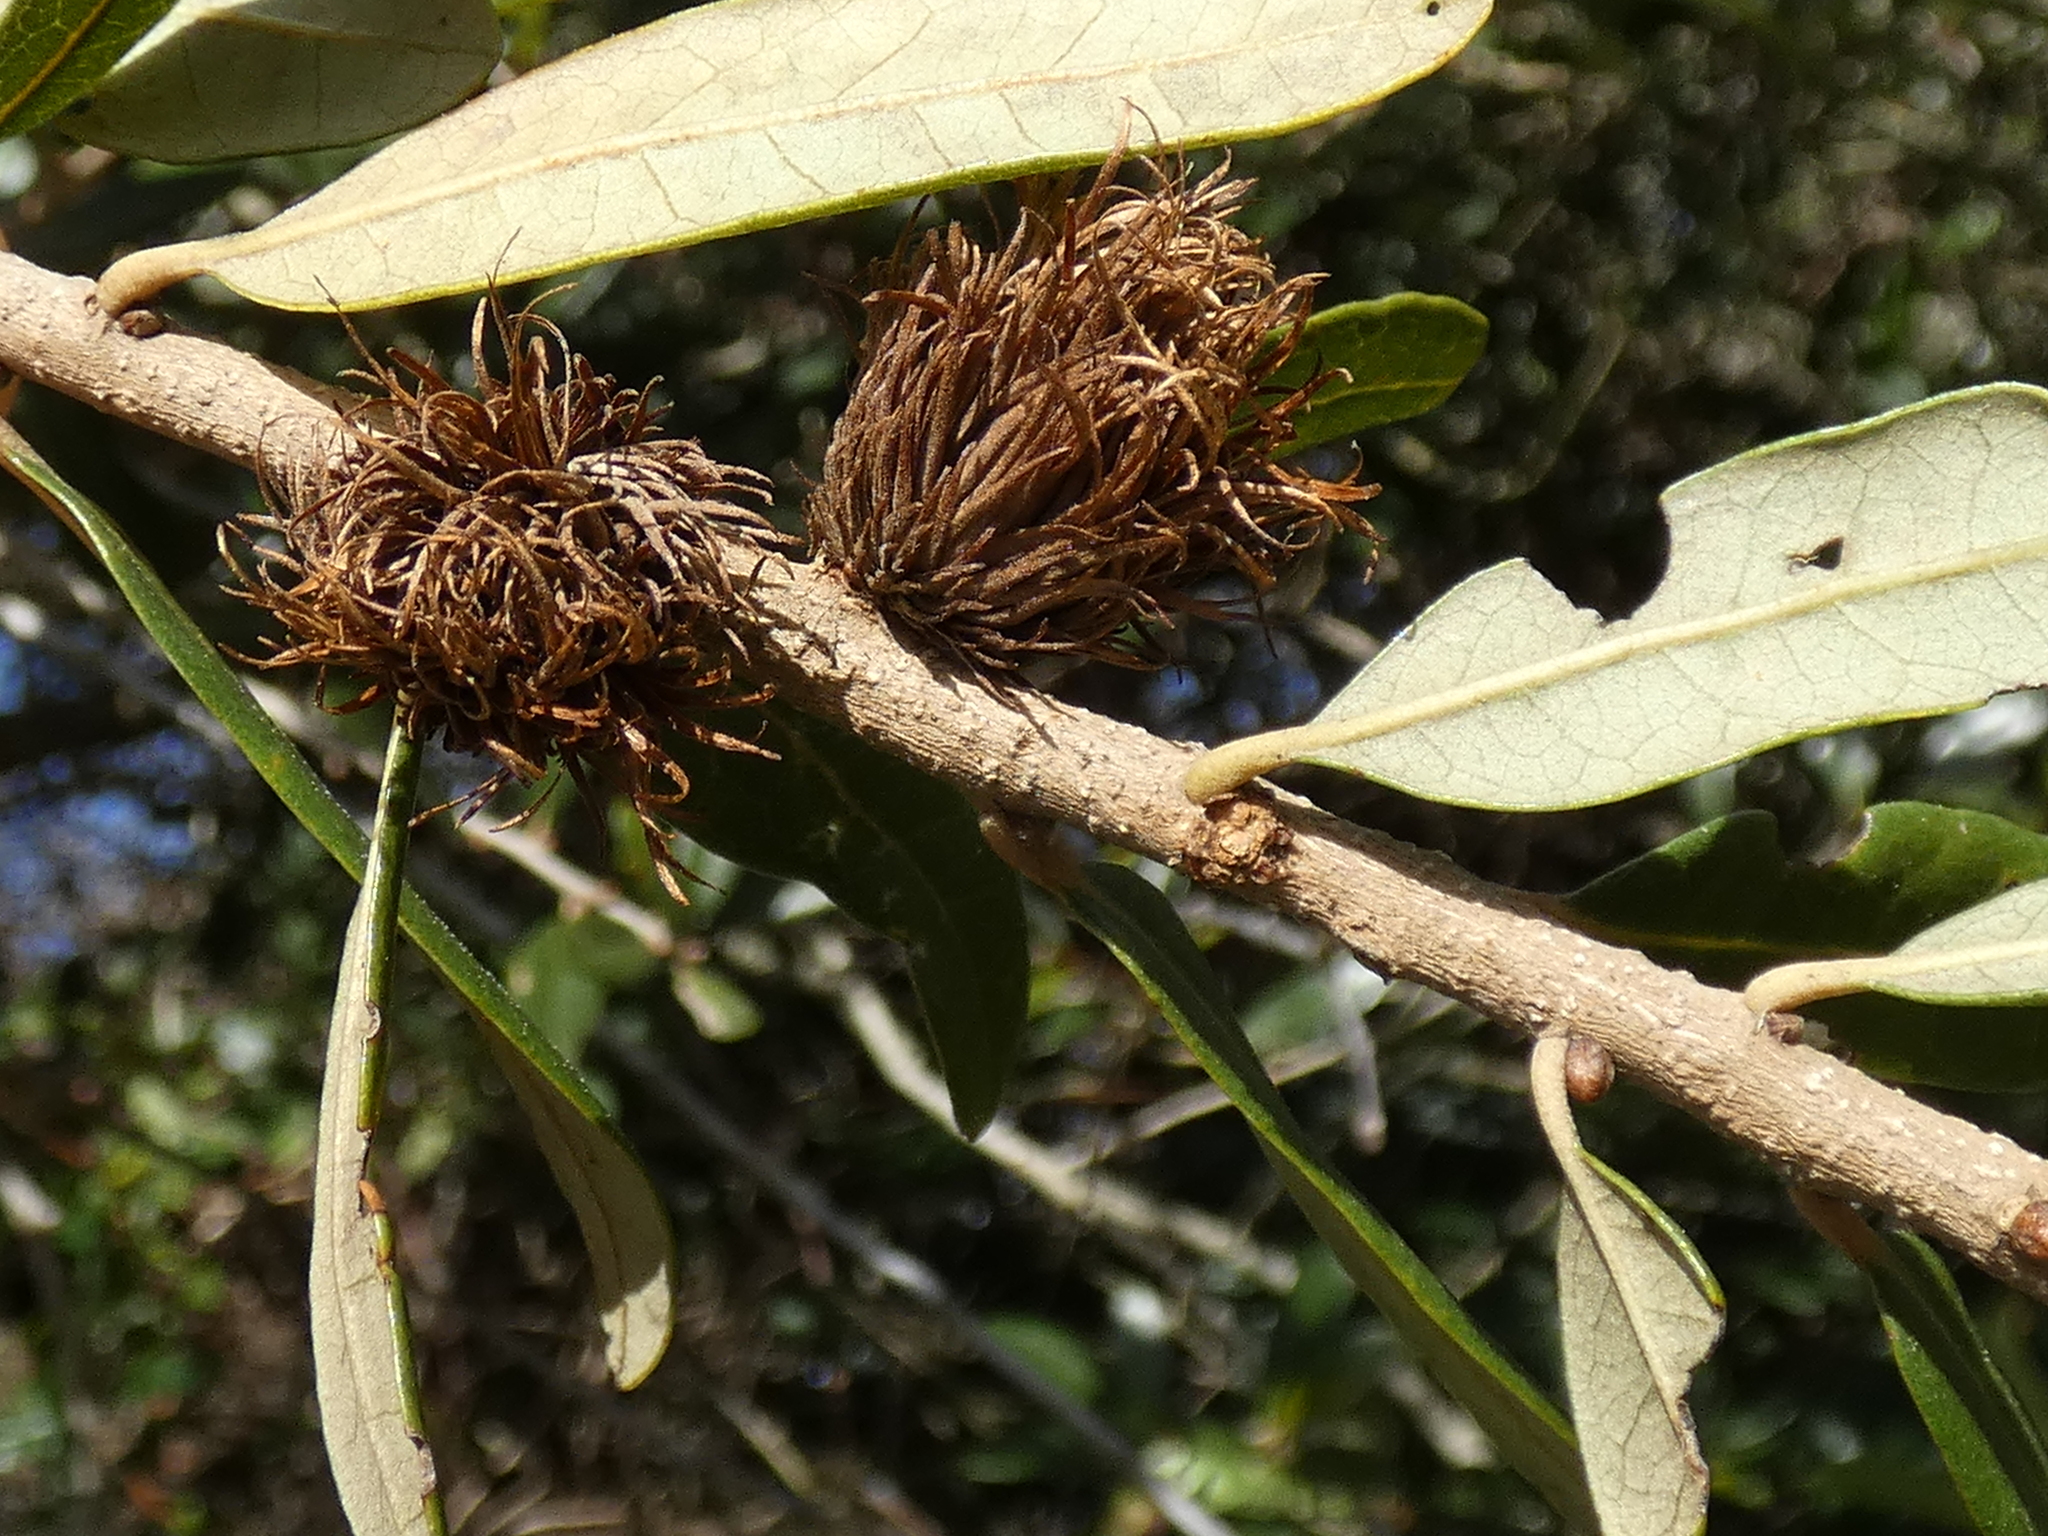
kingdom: Animalia
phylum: Arthropoda
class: Insecta
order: Hymenoptera
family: Cynipidae
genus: Andricus
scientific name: Andricus quercusfoliatus
